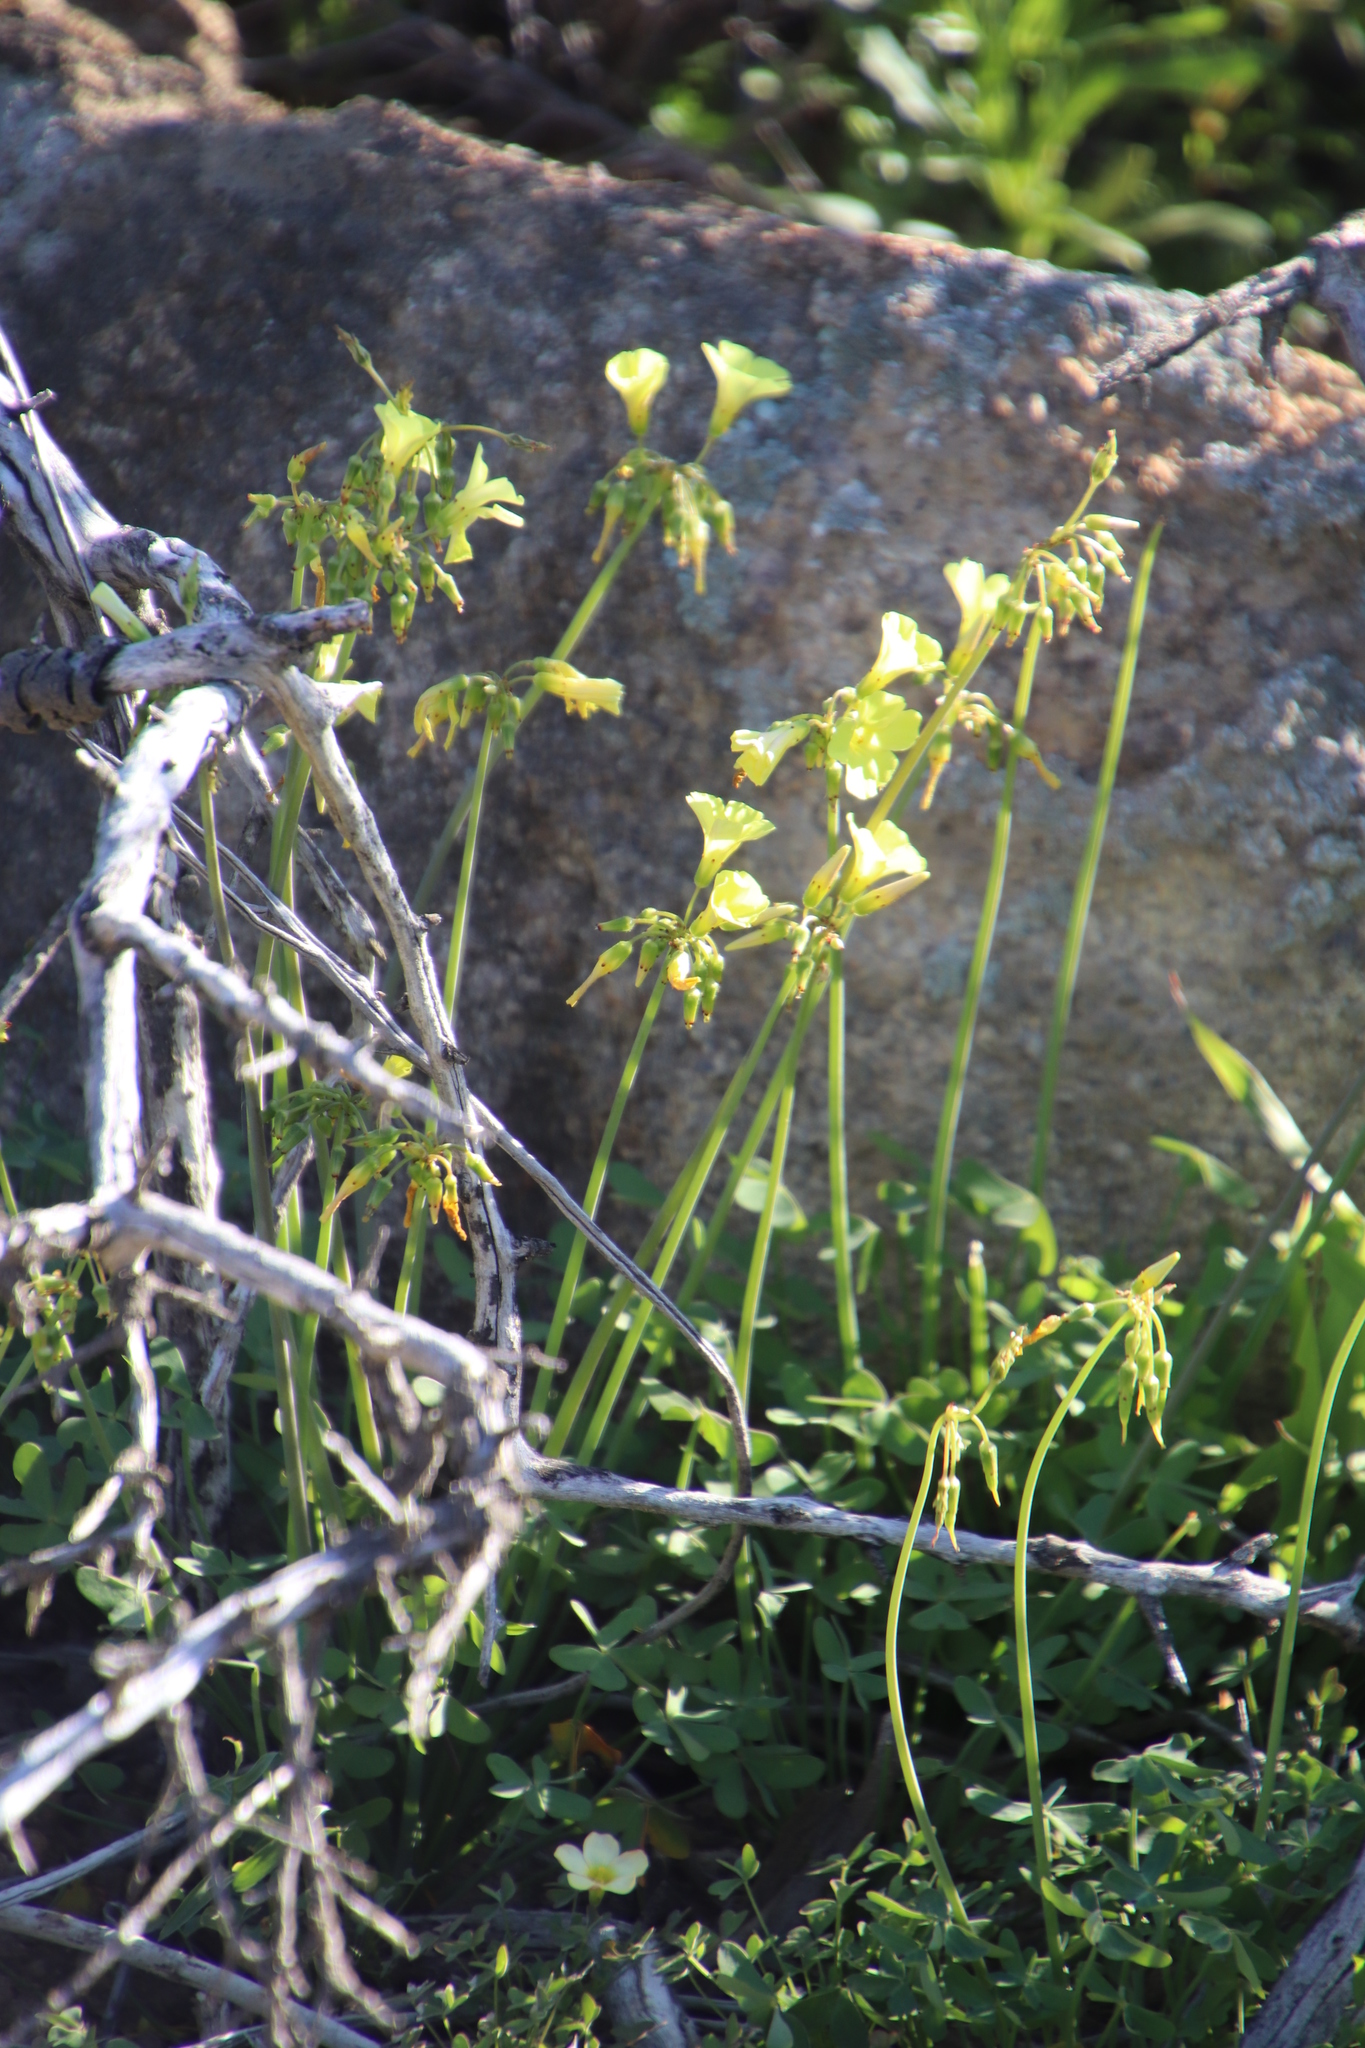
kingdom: Plantae
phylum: Tracheophyta
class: Magnoliopsida
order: Oxalidales
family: Oxalidaceae
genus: Oxalis
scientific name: Oxalis pes-caprae
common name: Bermuda-buttercup
